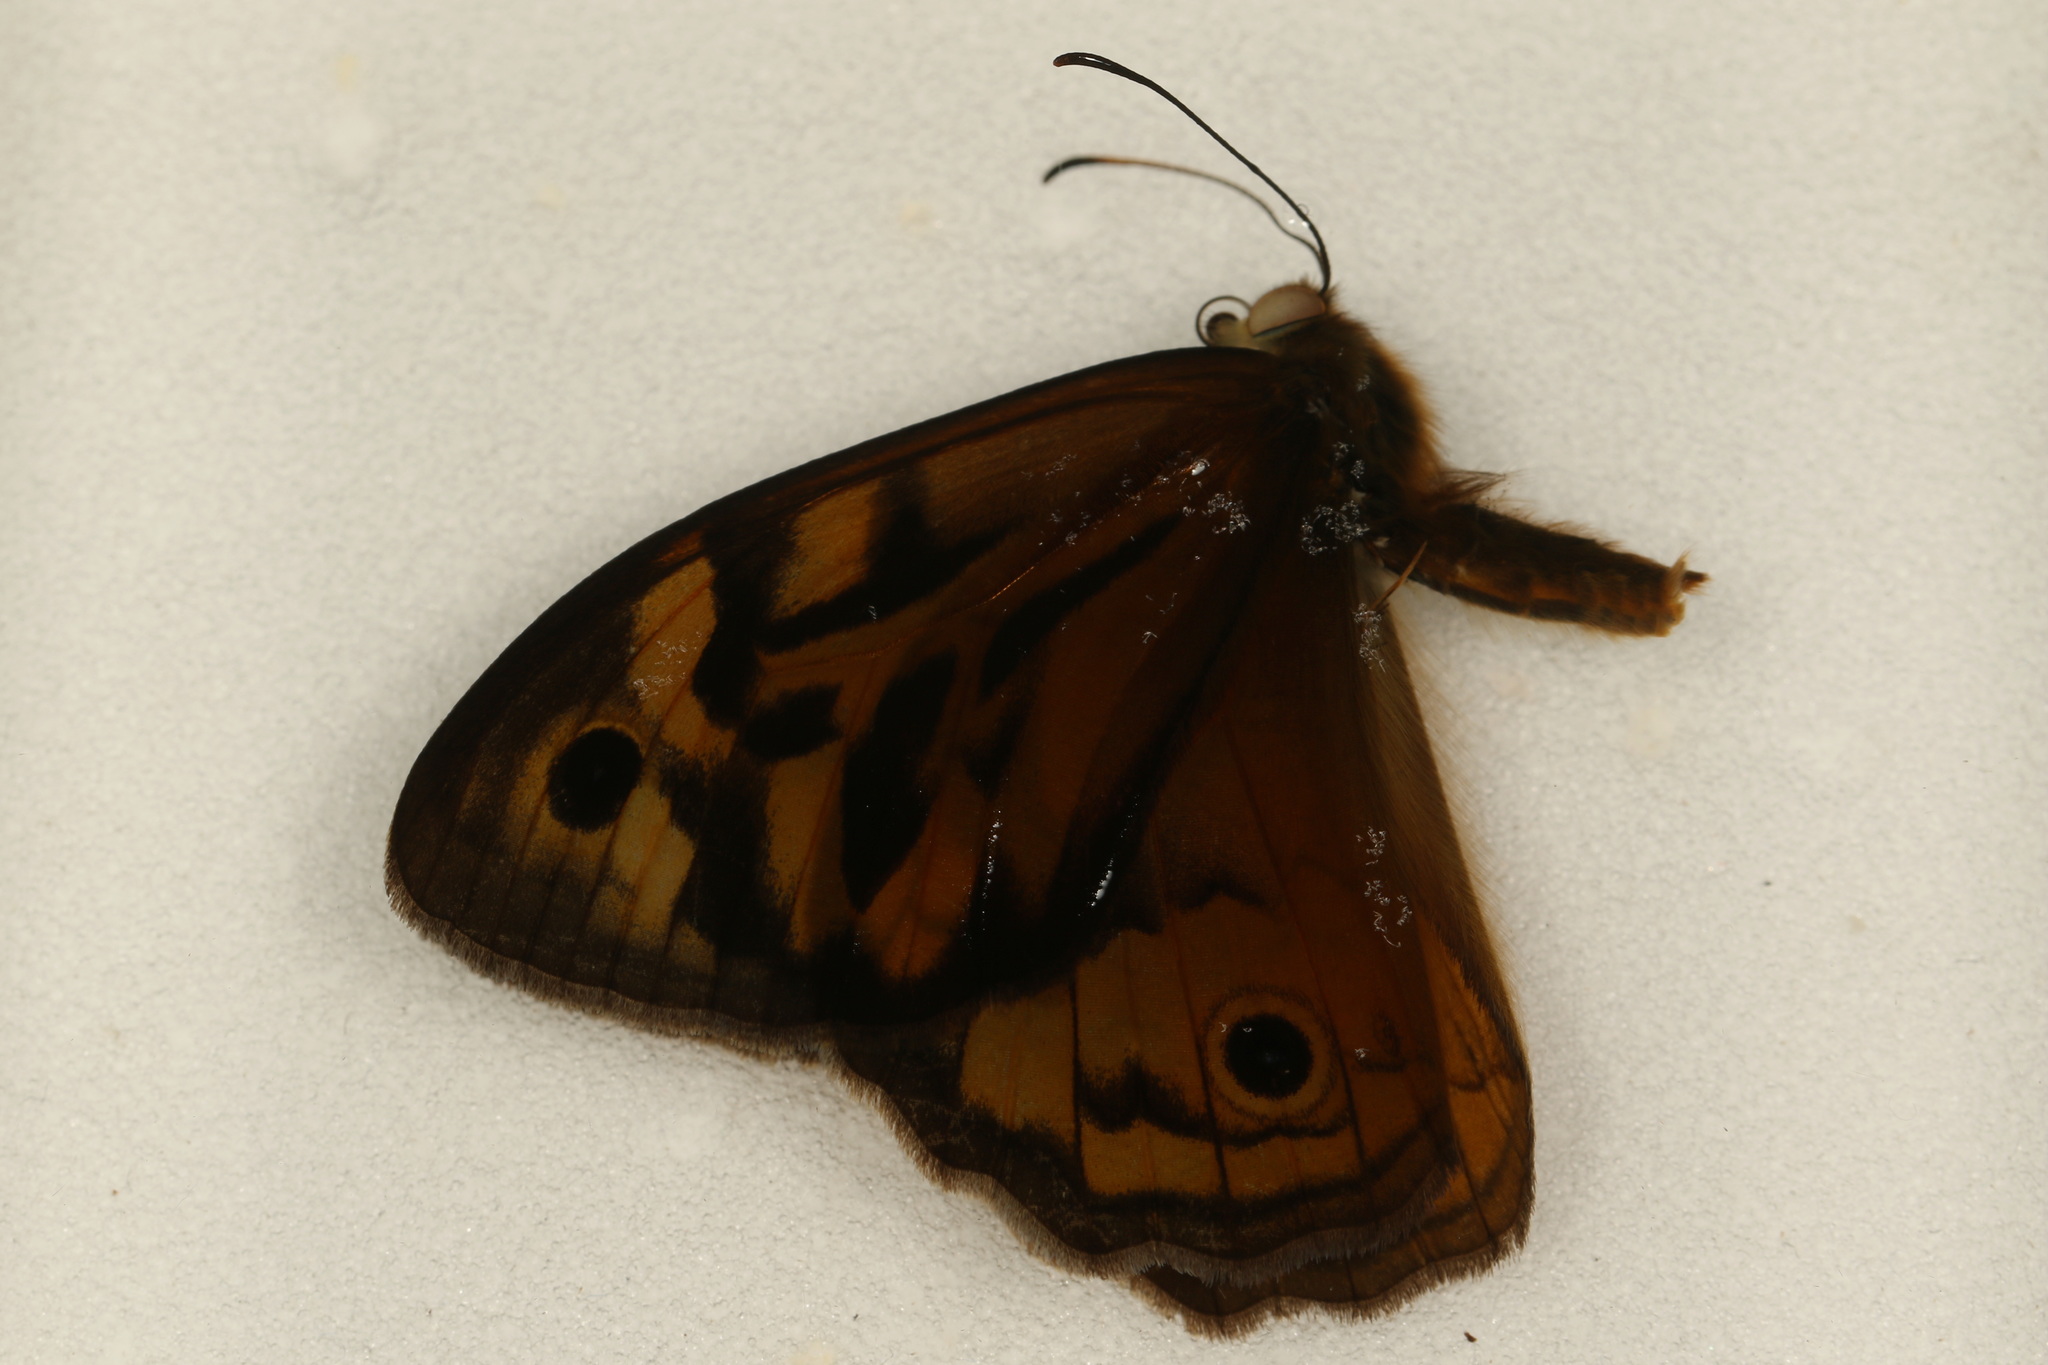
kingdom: Animalia
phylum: Arthropoda
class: Insecta
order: Lepidoptera
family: Nymphalidae
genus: Heteronympha
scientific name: Heteronympha merope
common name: Common brown
